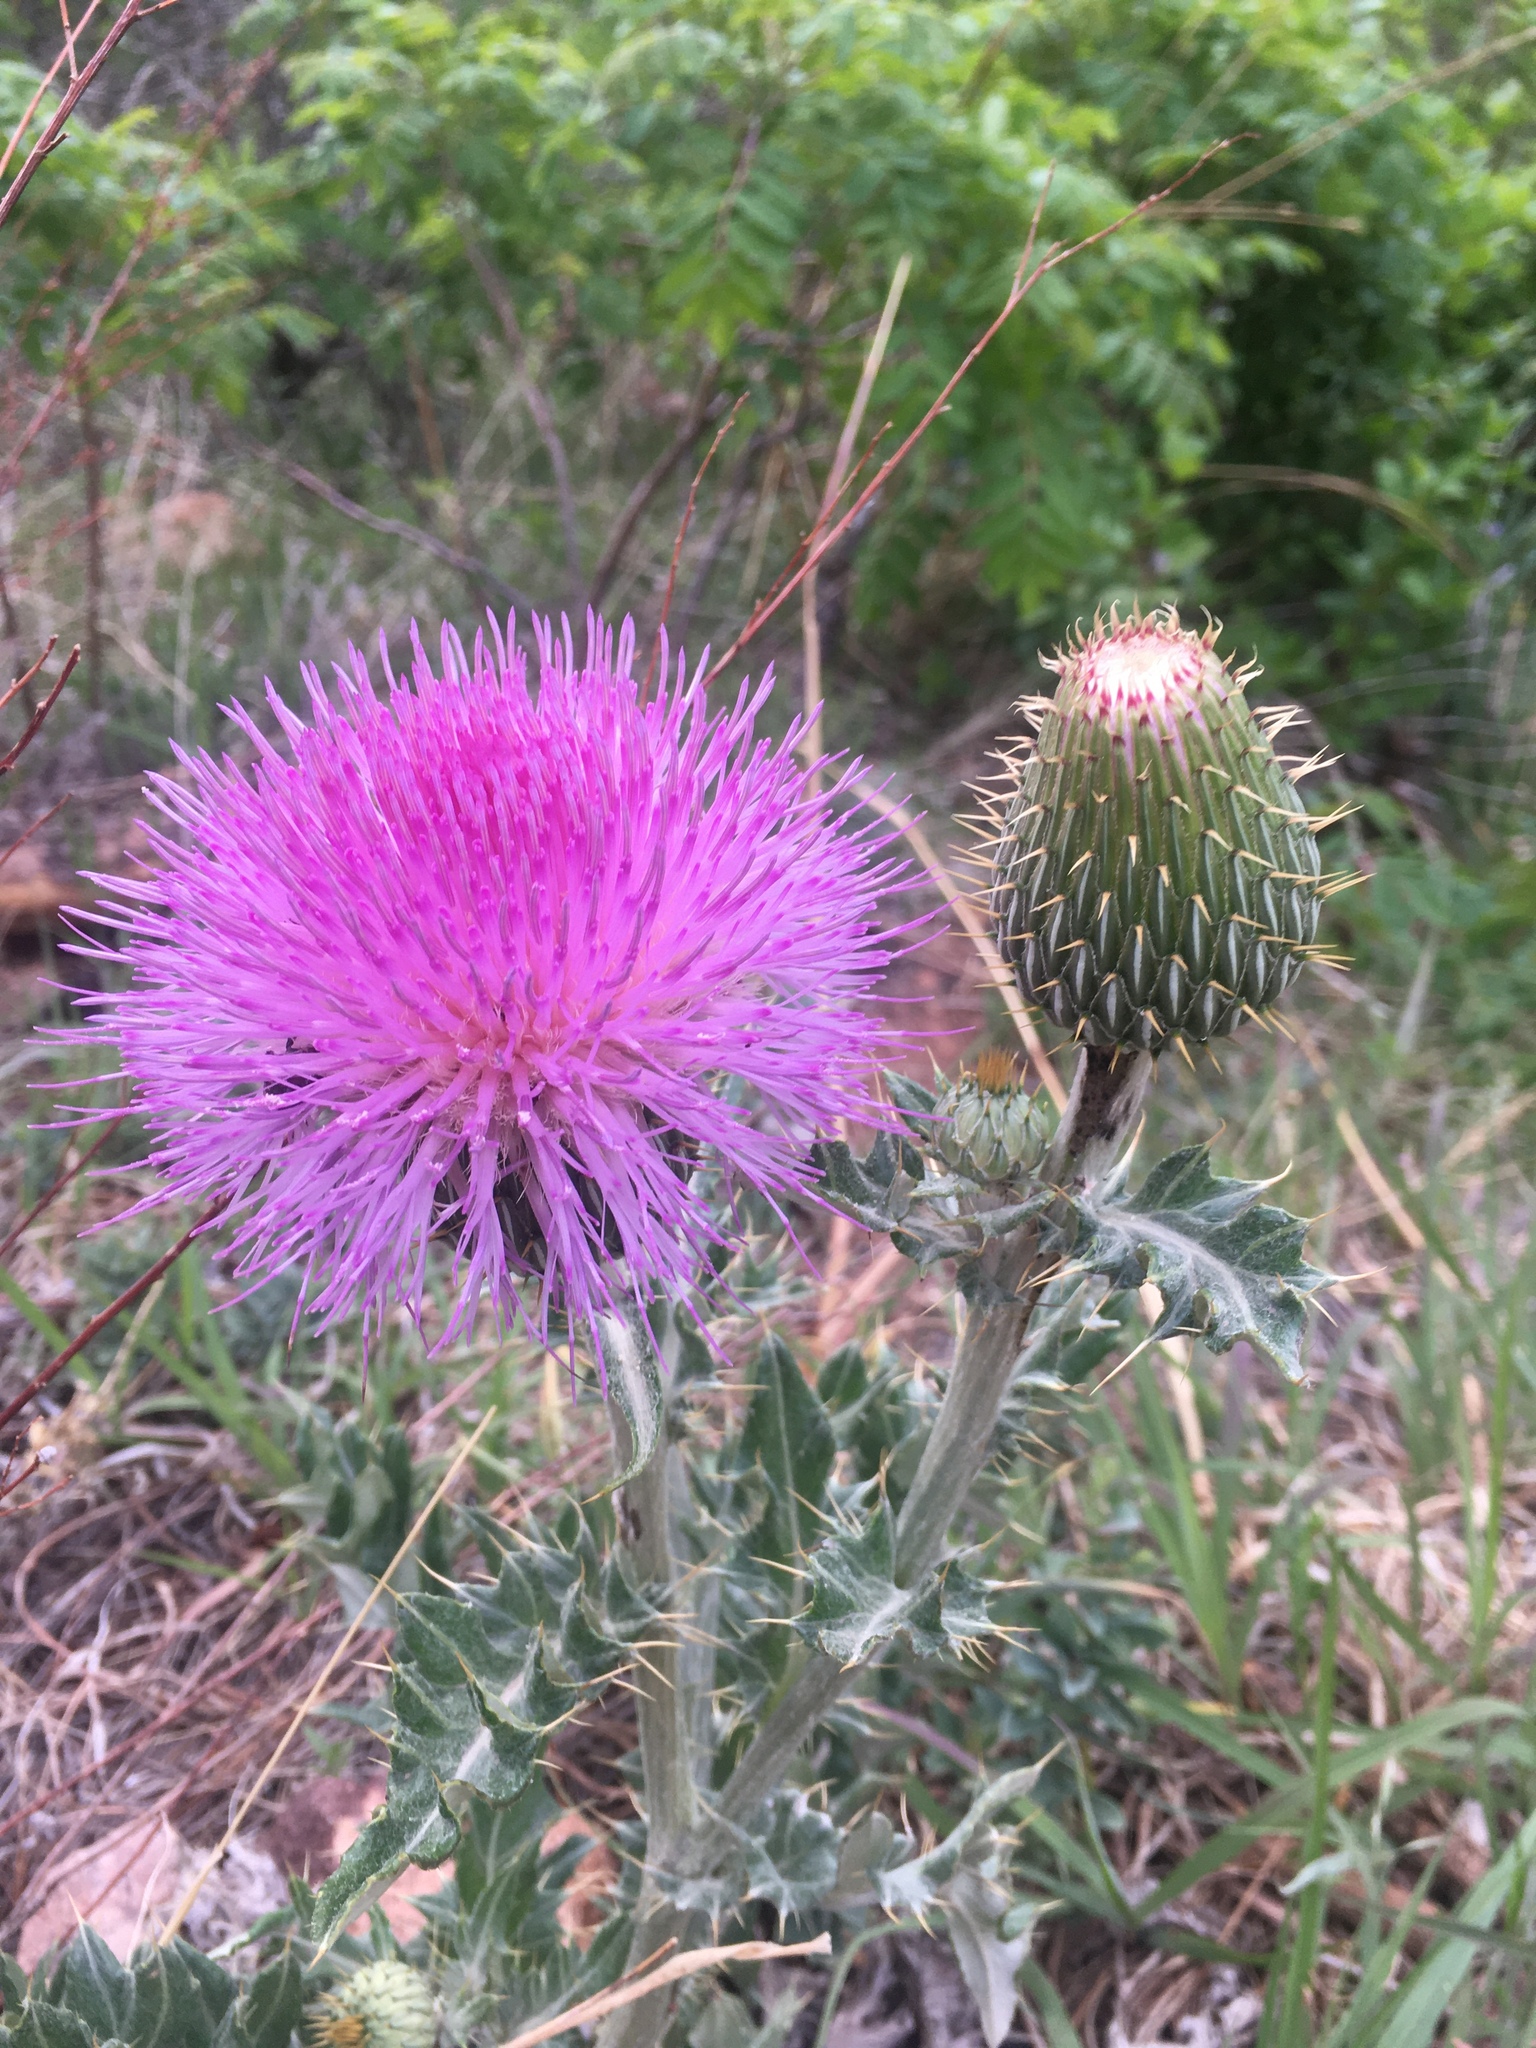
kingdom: Plantae
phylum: Tracheophyta
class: Magnoliopsida
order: Asterales
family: Asteraceae
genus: Cirsium
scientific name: Cirsium undulatum
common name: Pasture thistle
